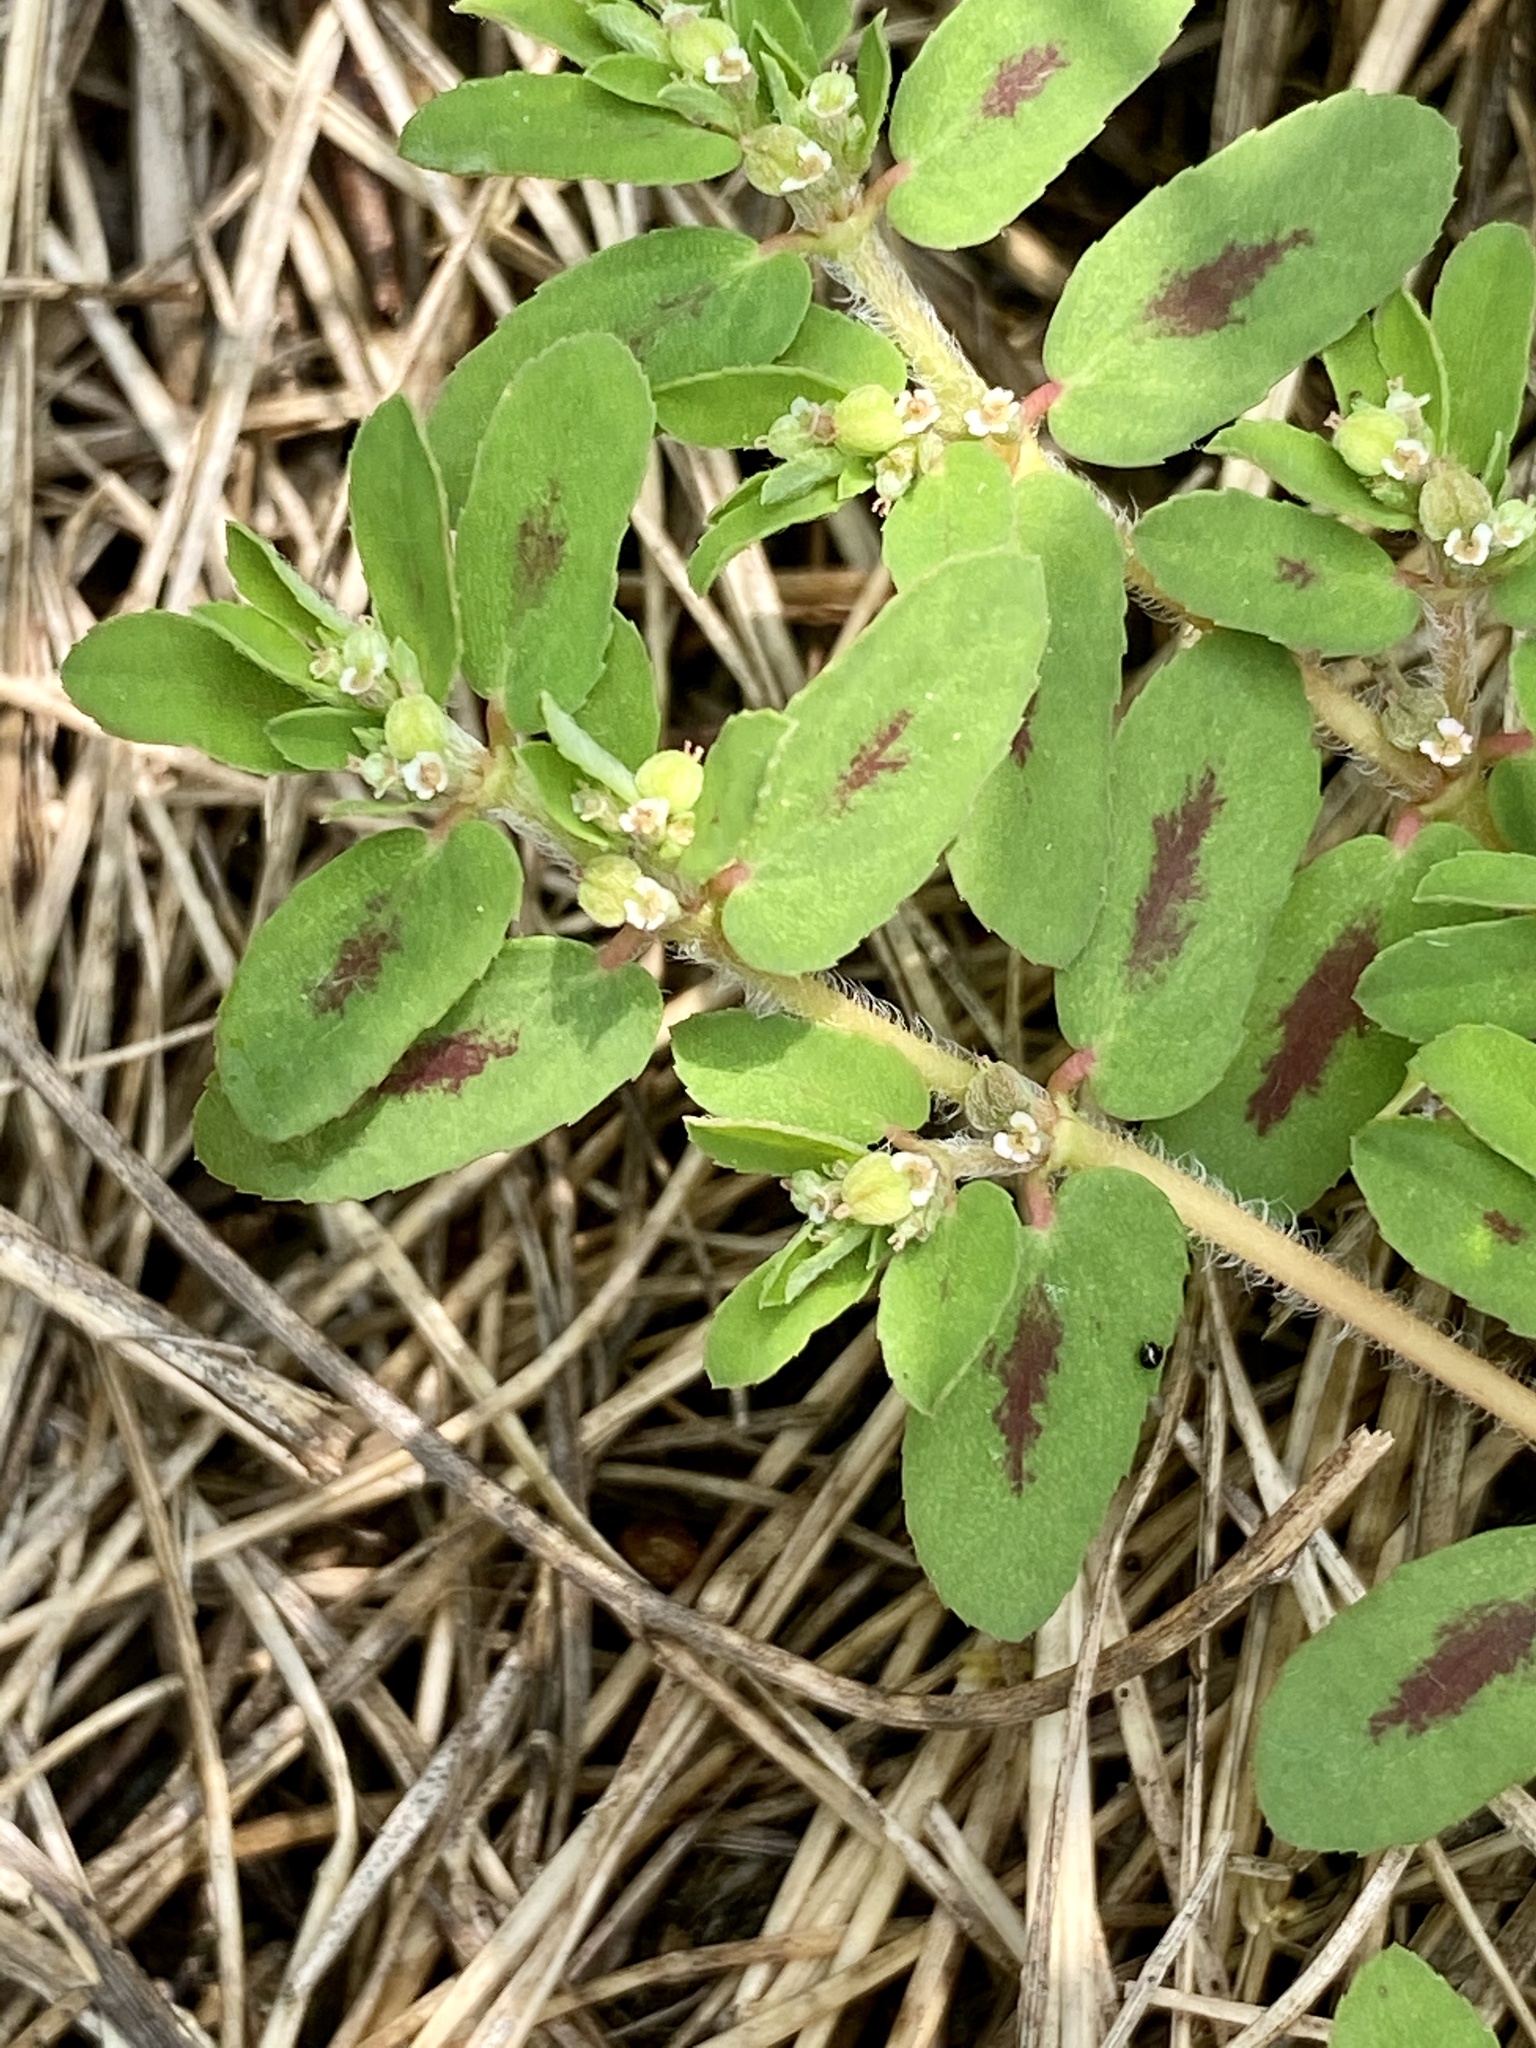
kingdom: Plantae
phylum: Tracheophyta
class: Magnoliopsida
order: Malpighiales
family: Euphorbiaceae
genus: Euphorbia
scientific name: Euphorbia maculata
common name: Spotted spurge
